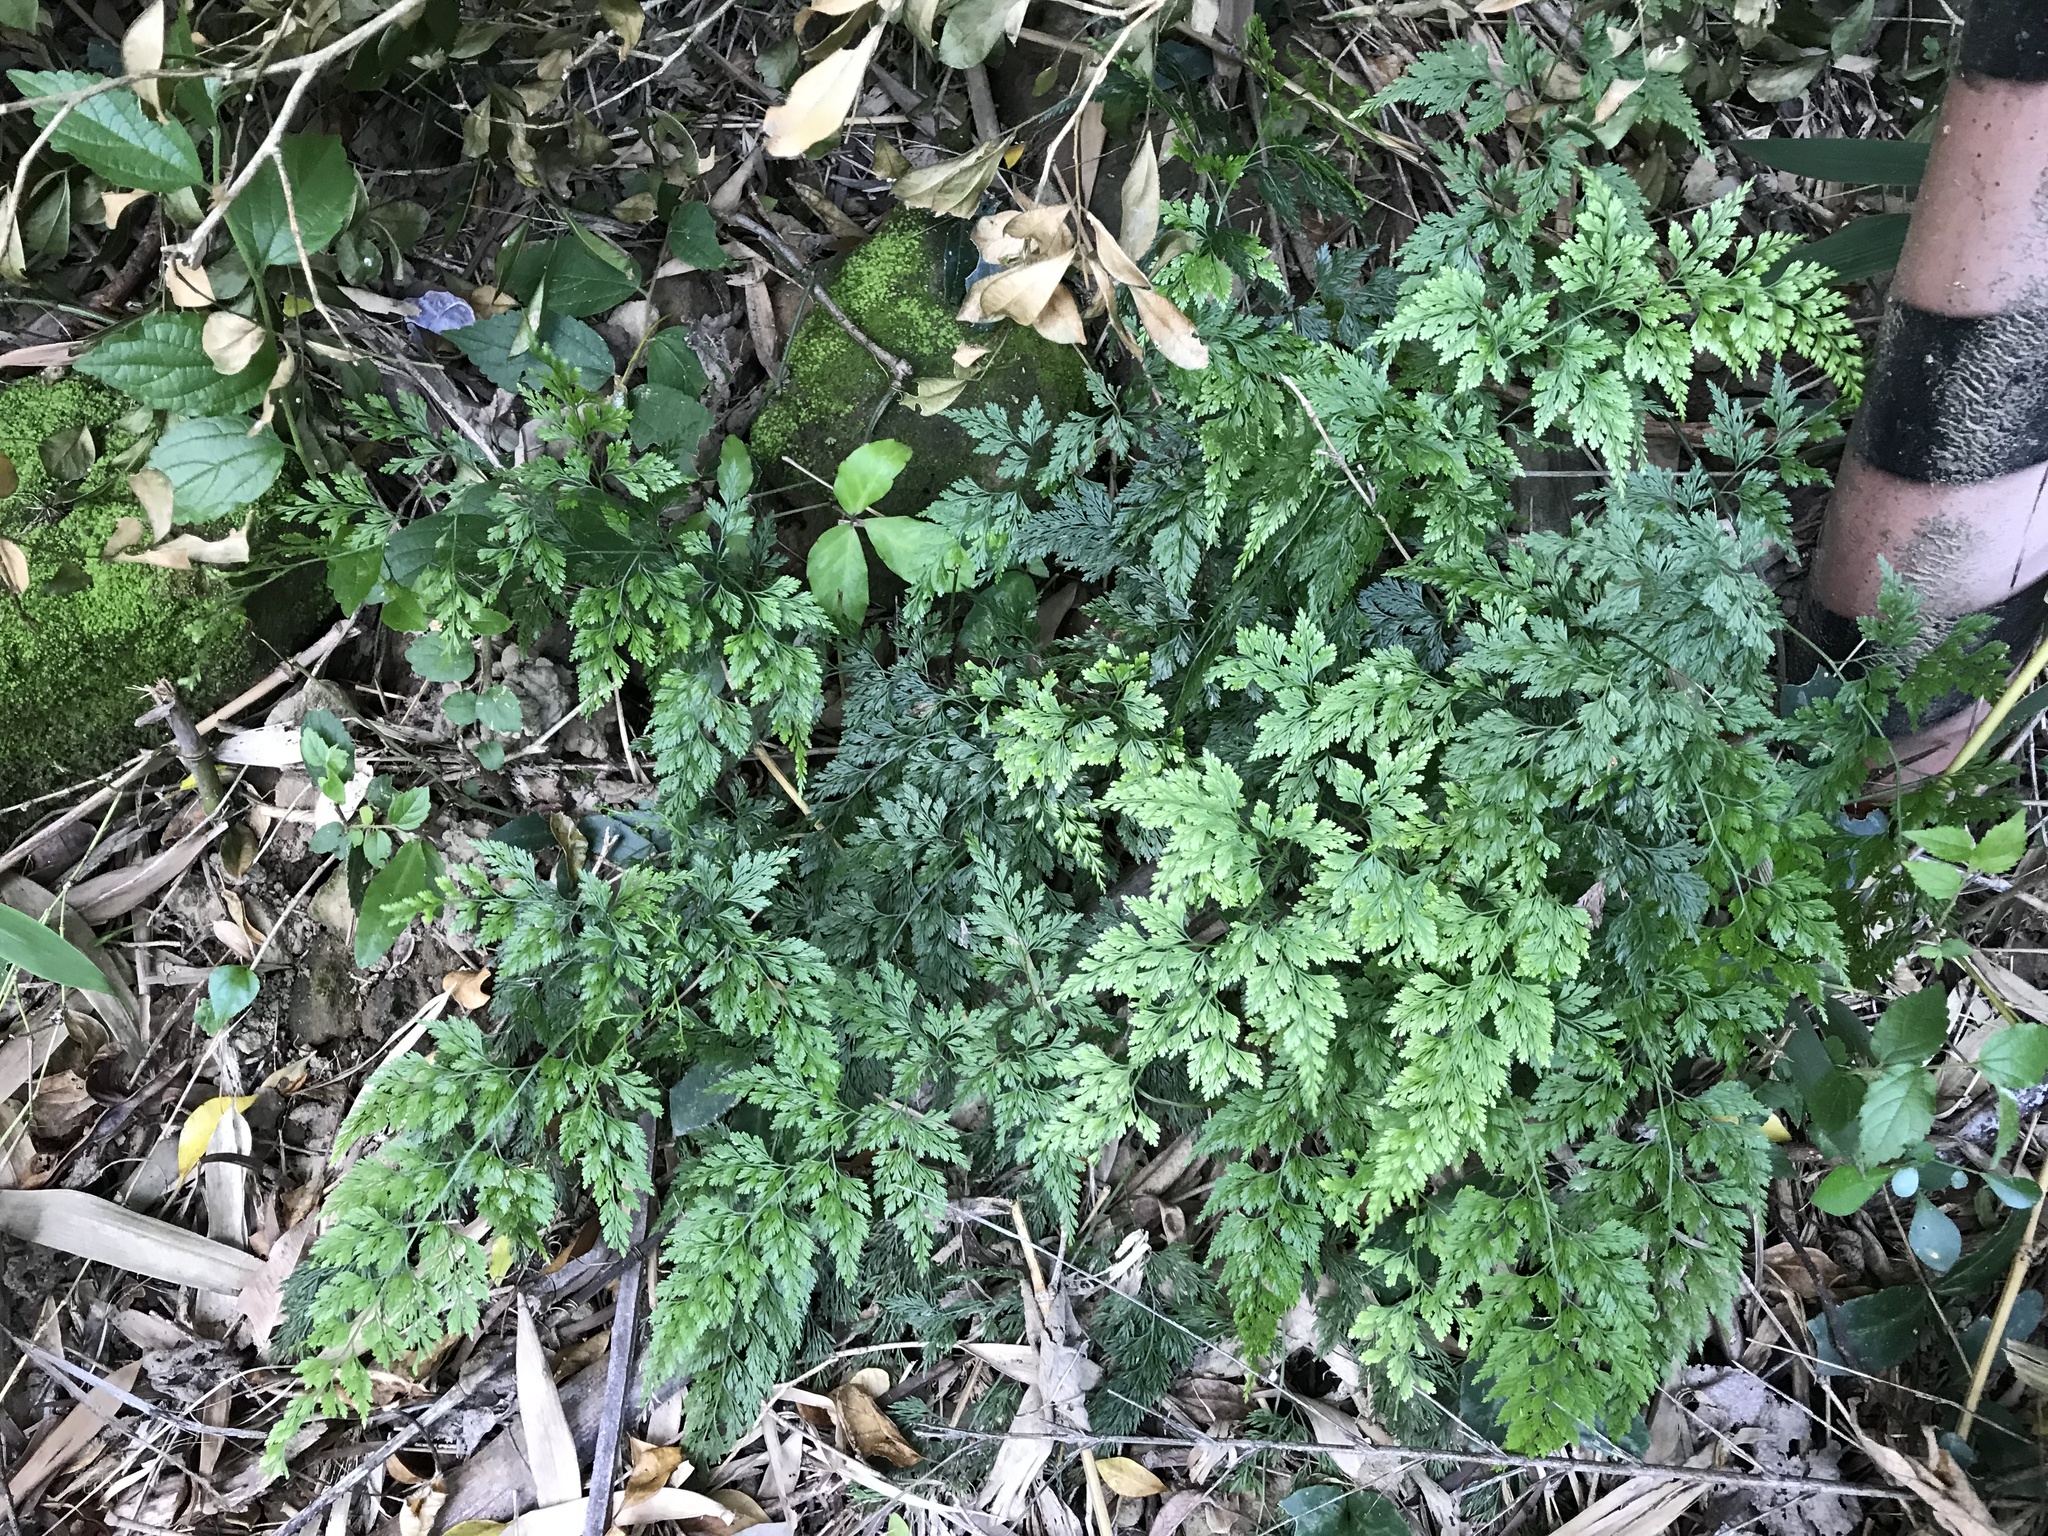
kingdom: Plantae
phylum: Tracheophyta
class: Polypodiopsida
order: Polypodiales
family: Pteridaceae
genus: Onychium
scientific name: Onychium japonicum
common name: Carrot fern
